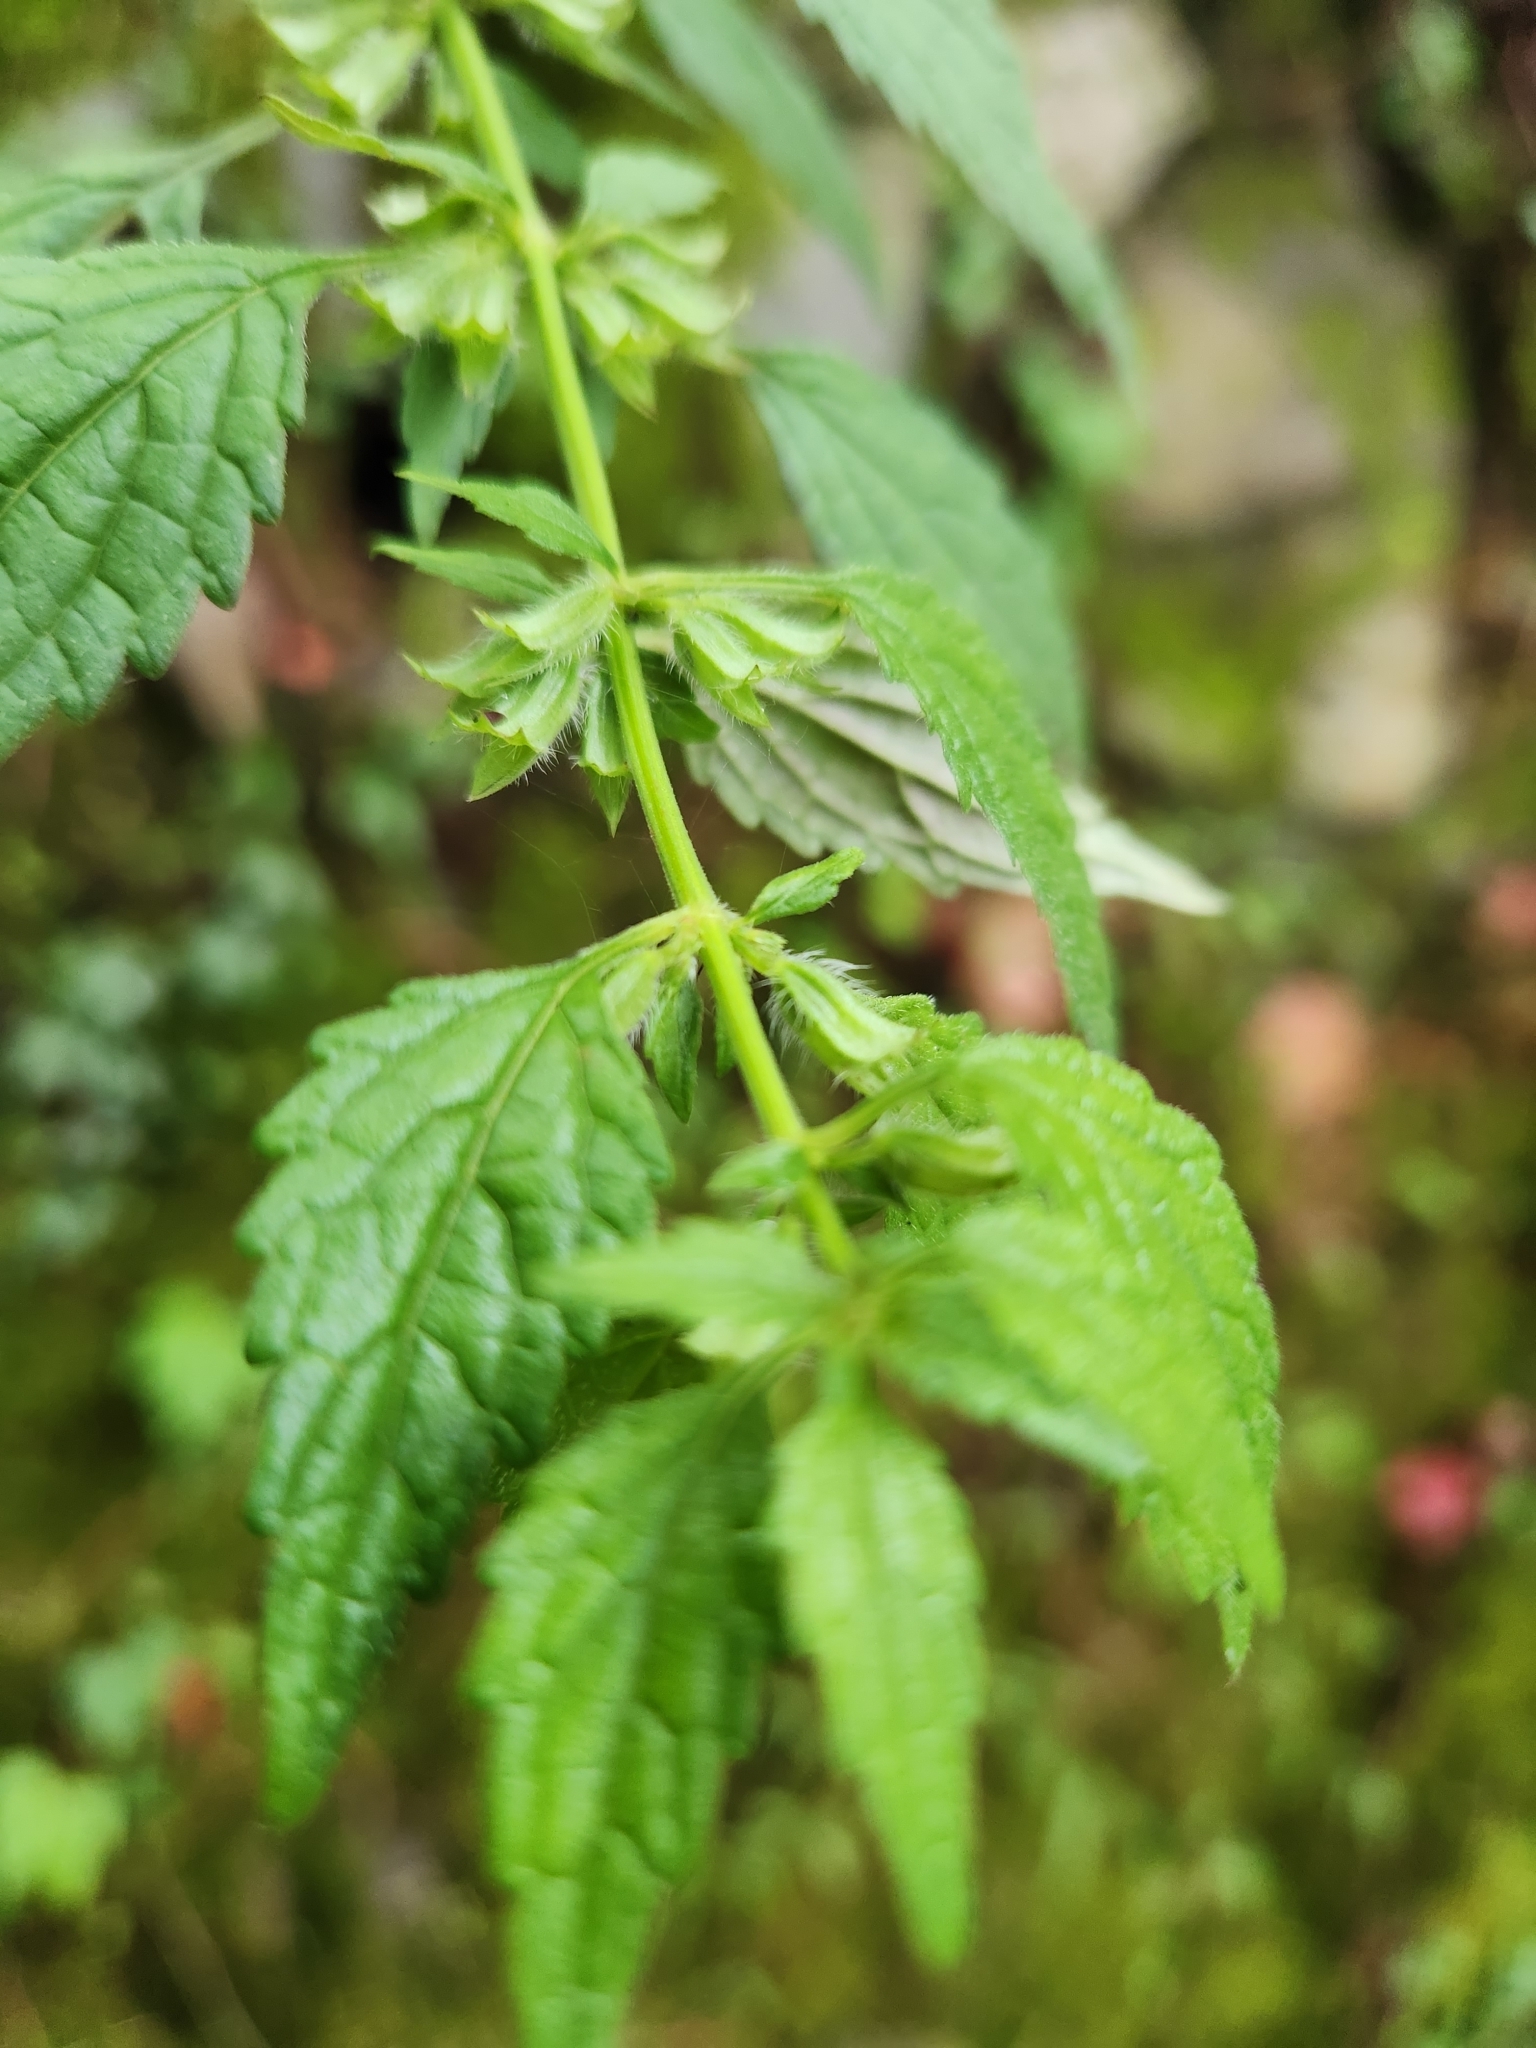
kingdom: Plantae
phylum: Tracheophyta
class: Magnoliopsida
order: Lamiales
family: Lamiaceae
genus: Melissa
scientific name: Melissa axillaris
